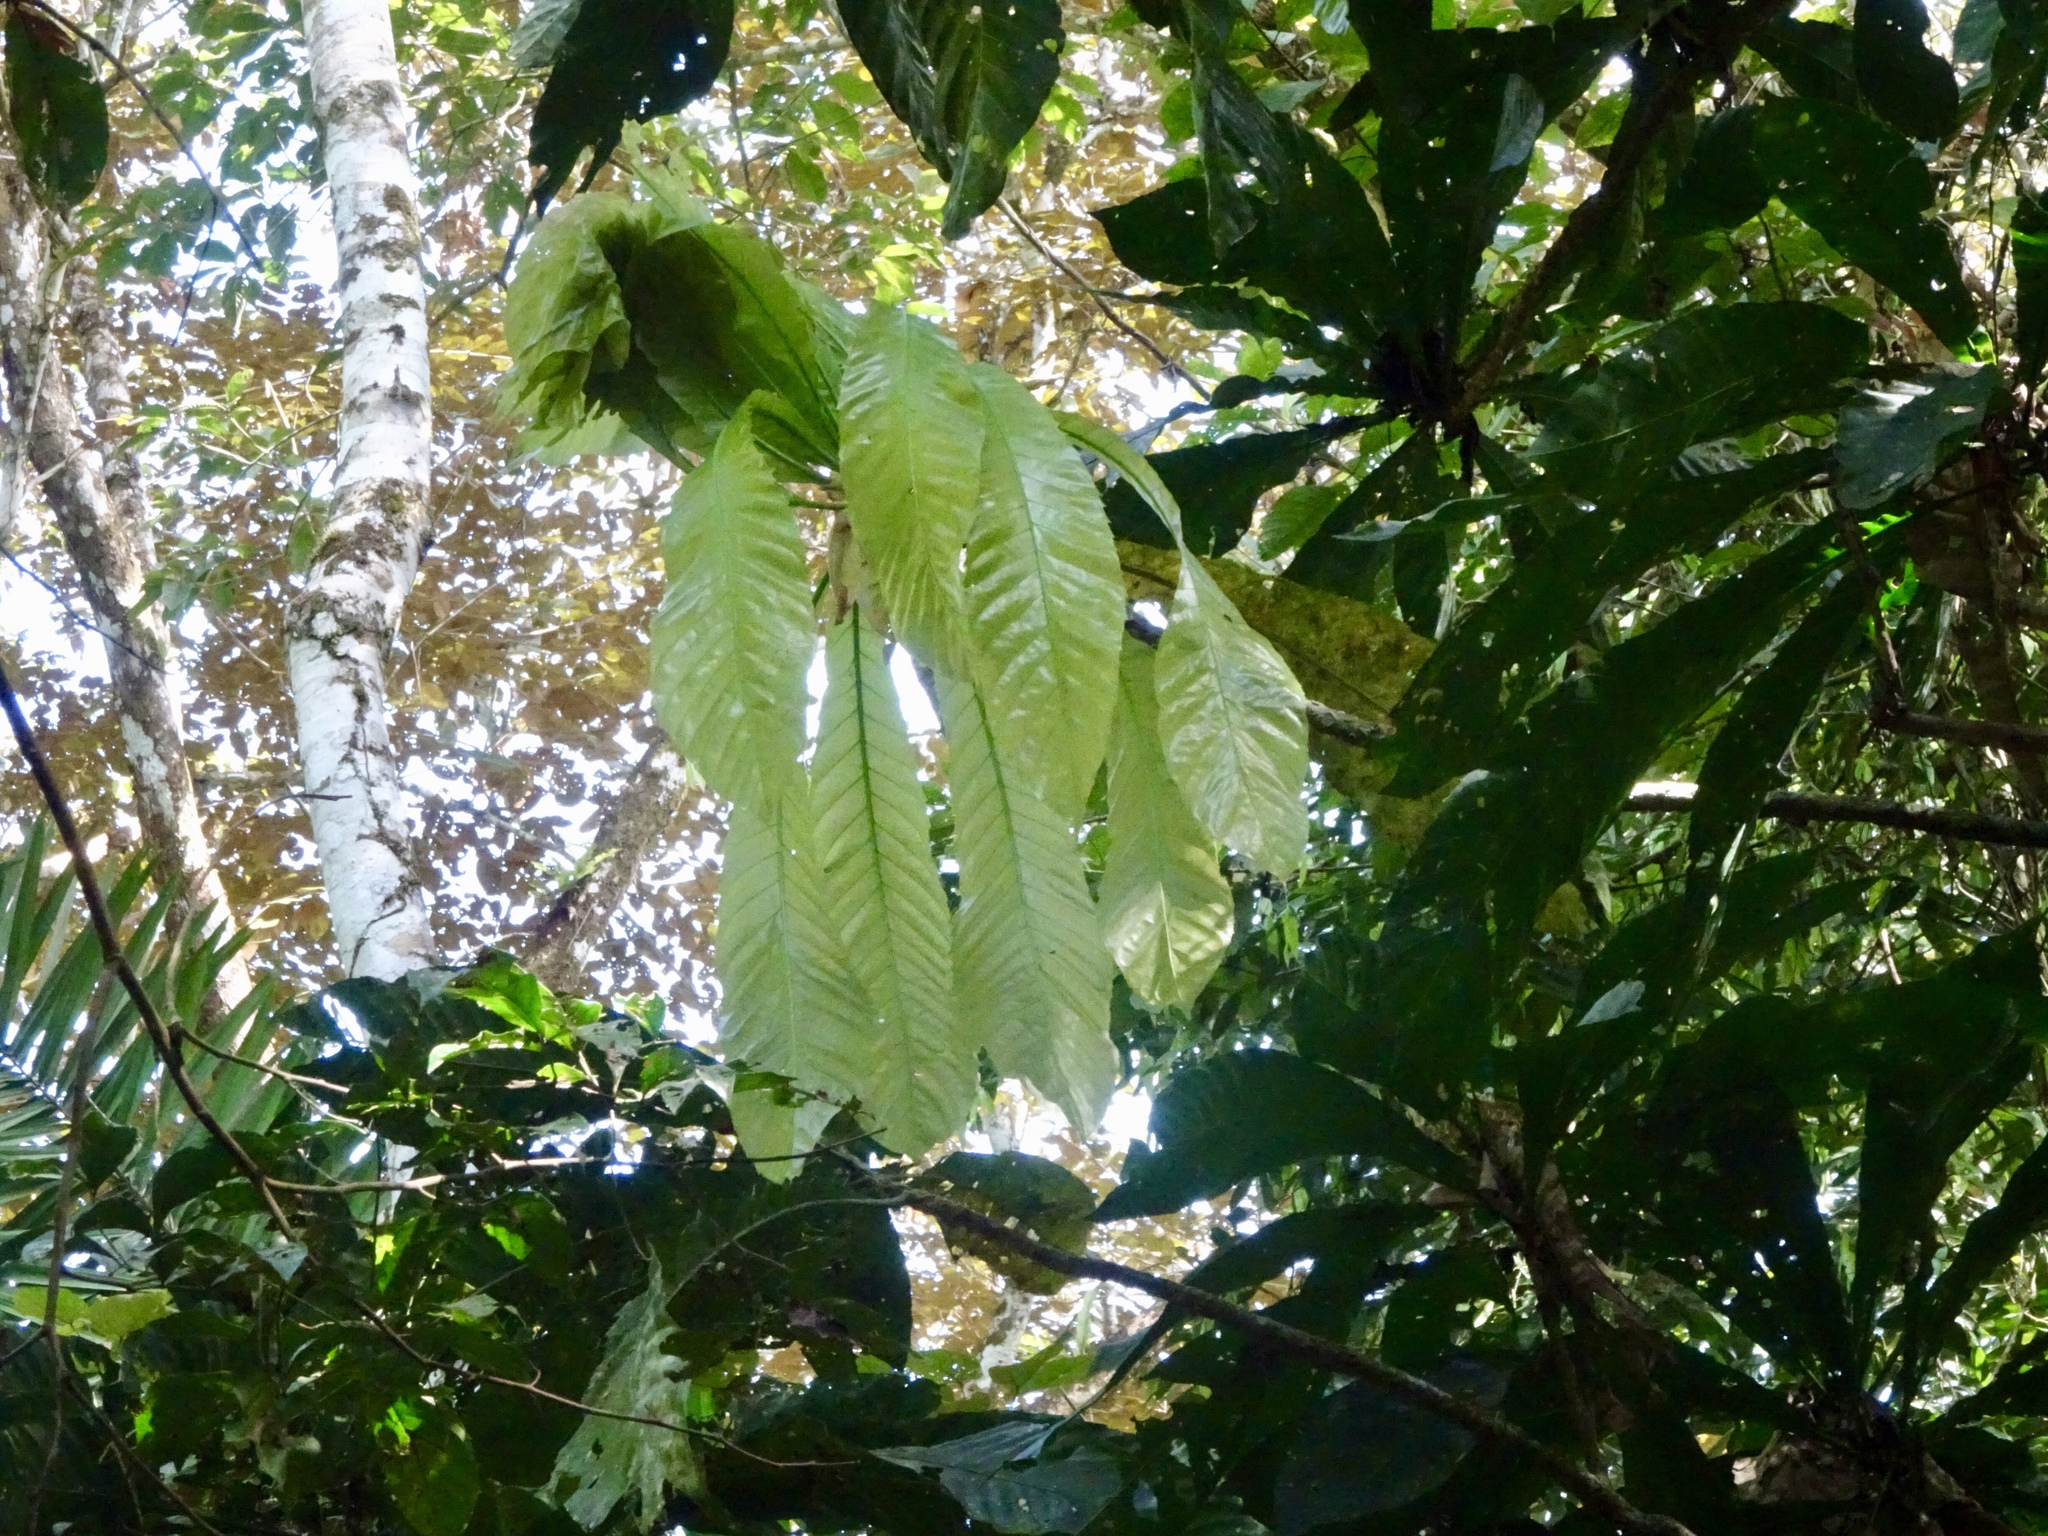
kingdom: Plantae
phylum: Tracheophyta
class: Magnoliopsida
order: Ericales
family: Lecythidaceae
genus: Gustavia
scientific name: Gustavia superba
